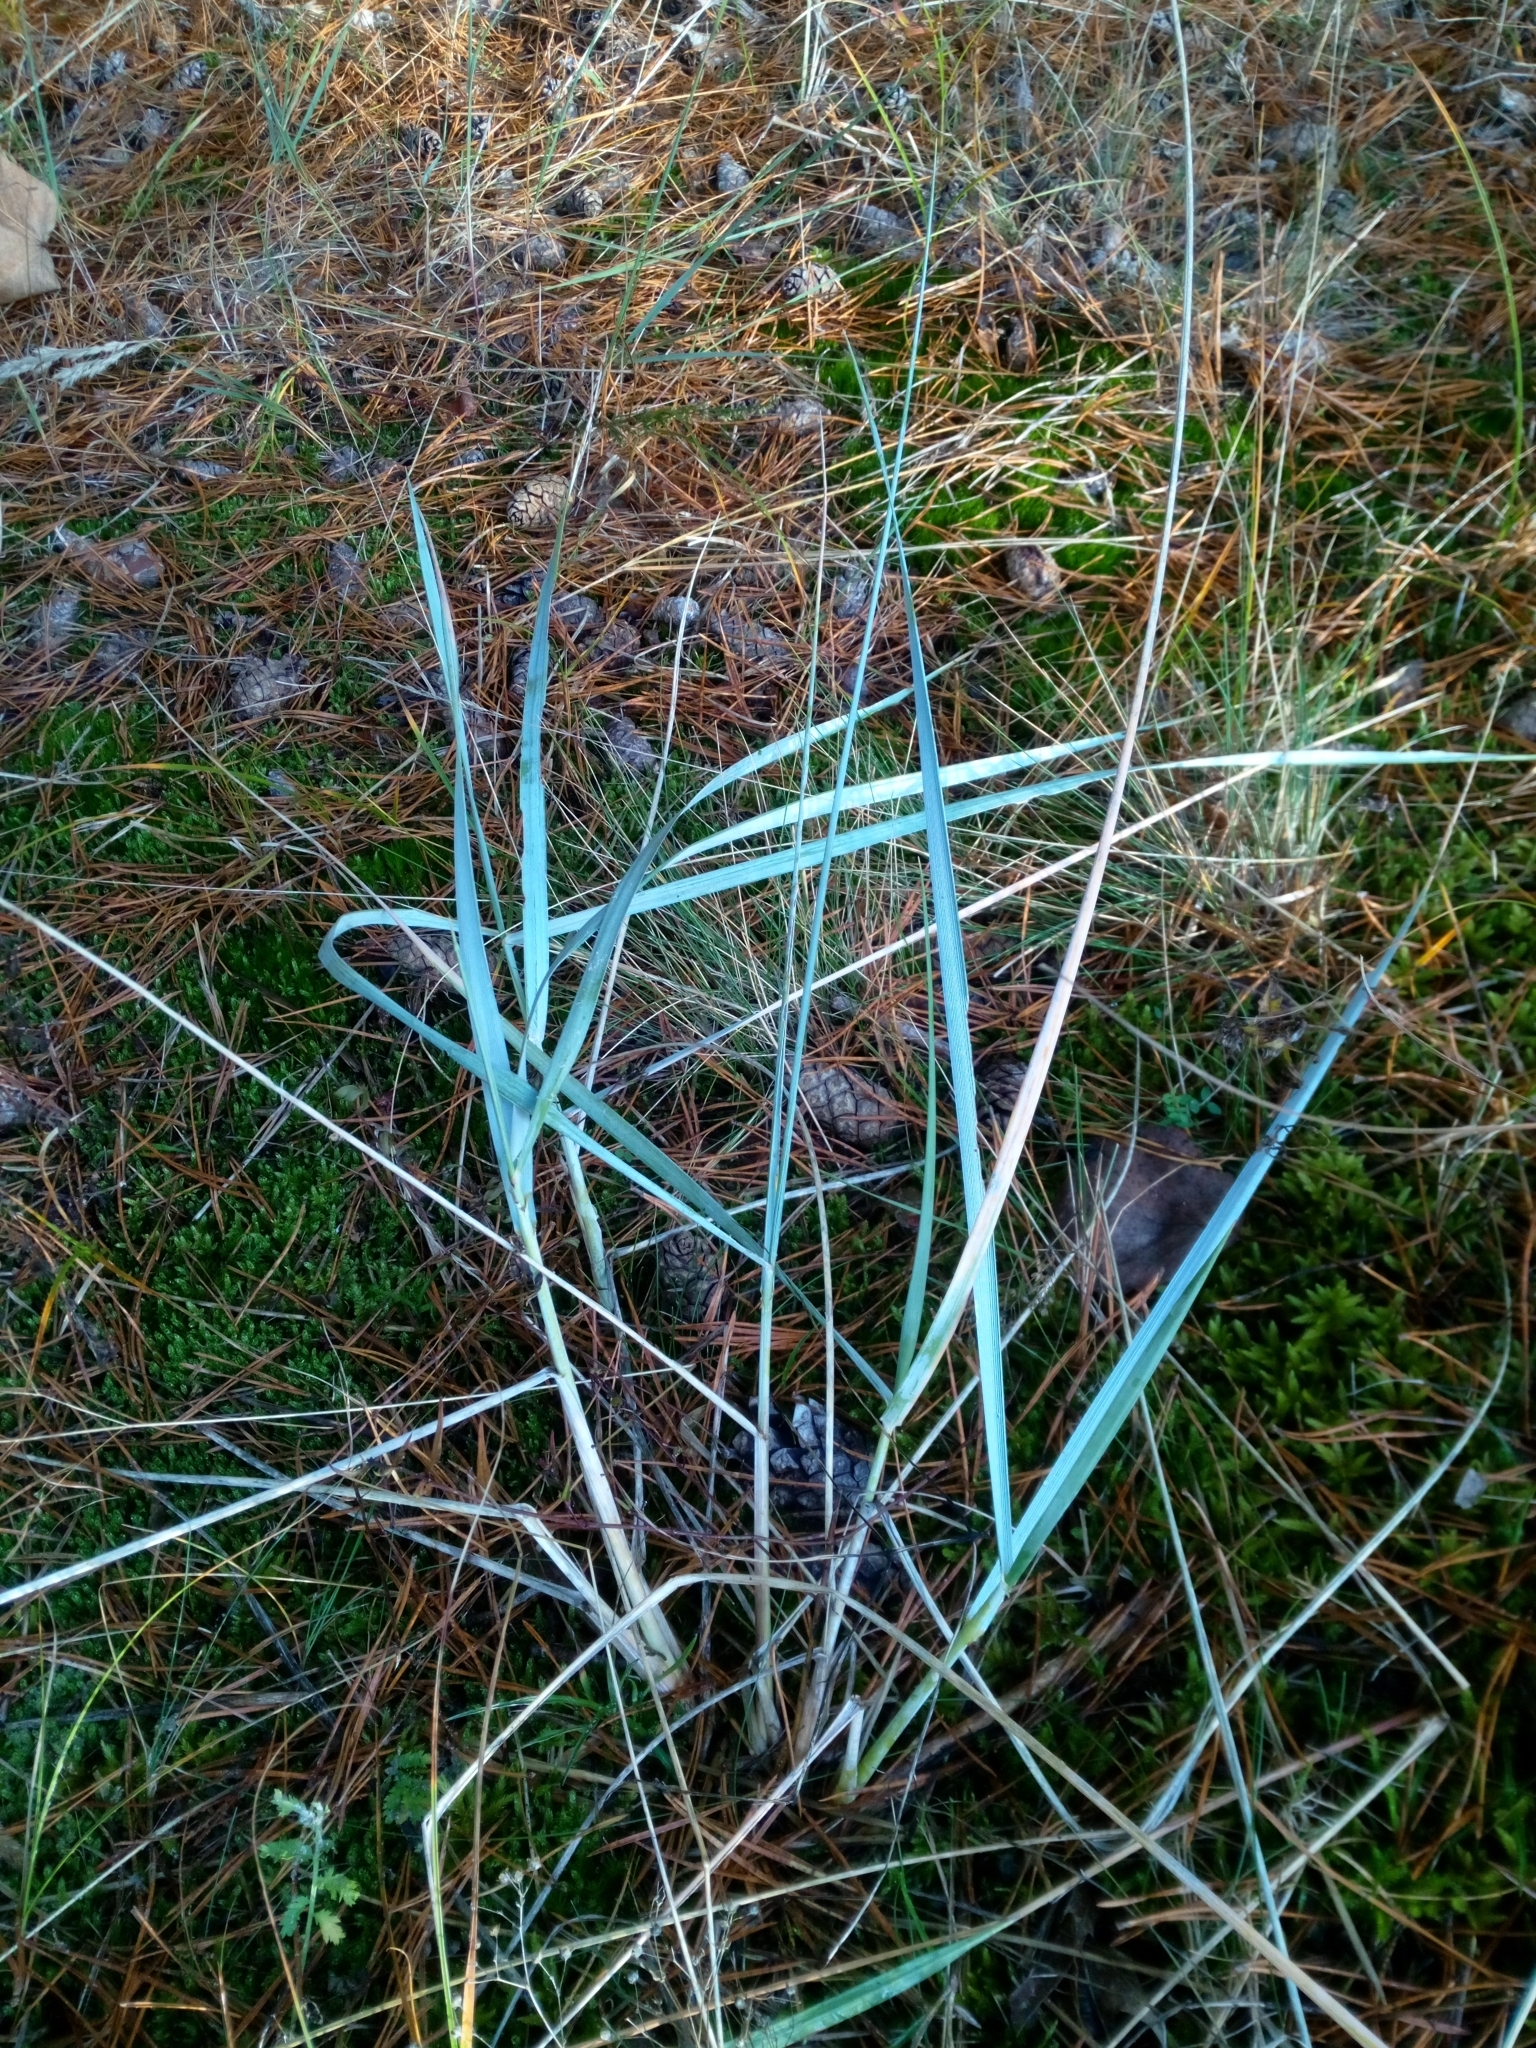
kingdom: Plantae
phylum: Tracheophyta
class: Liliopsida
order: Poales
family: Poaceae
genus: Leymus
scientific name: Leymus arenarius
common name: Lyme-grass
